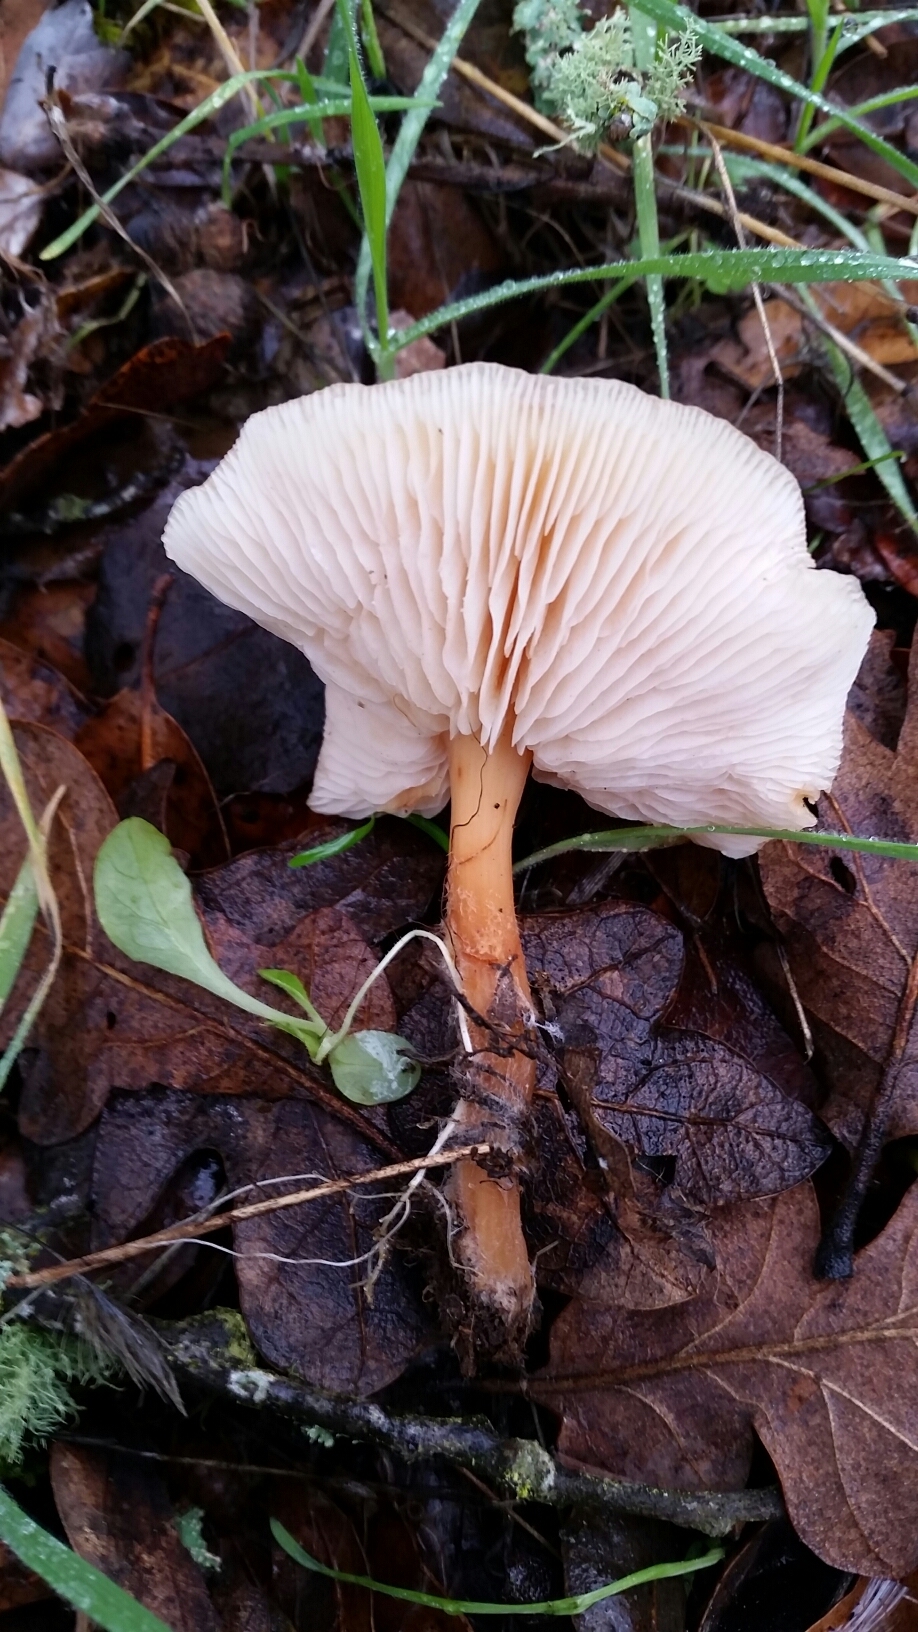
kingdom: Fungi
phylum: Basidiomycota
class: Agaricomycetes
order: Agaricales
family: Omphalotaceae
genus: Gymnopus
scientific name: Gymnopus dryophilus
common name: Penny top
